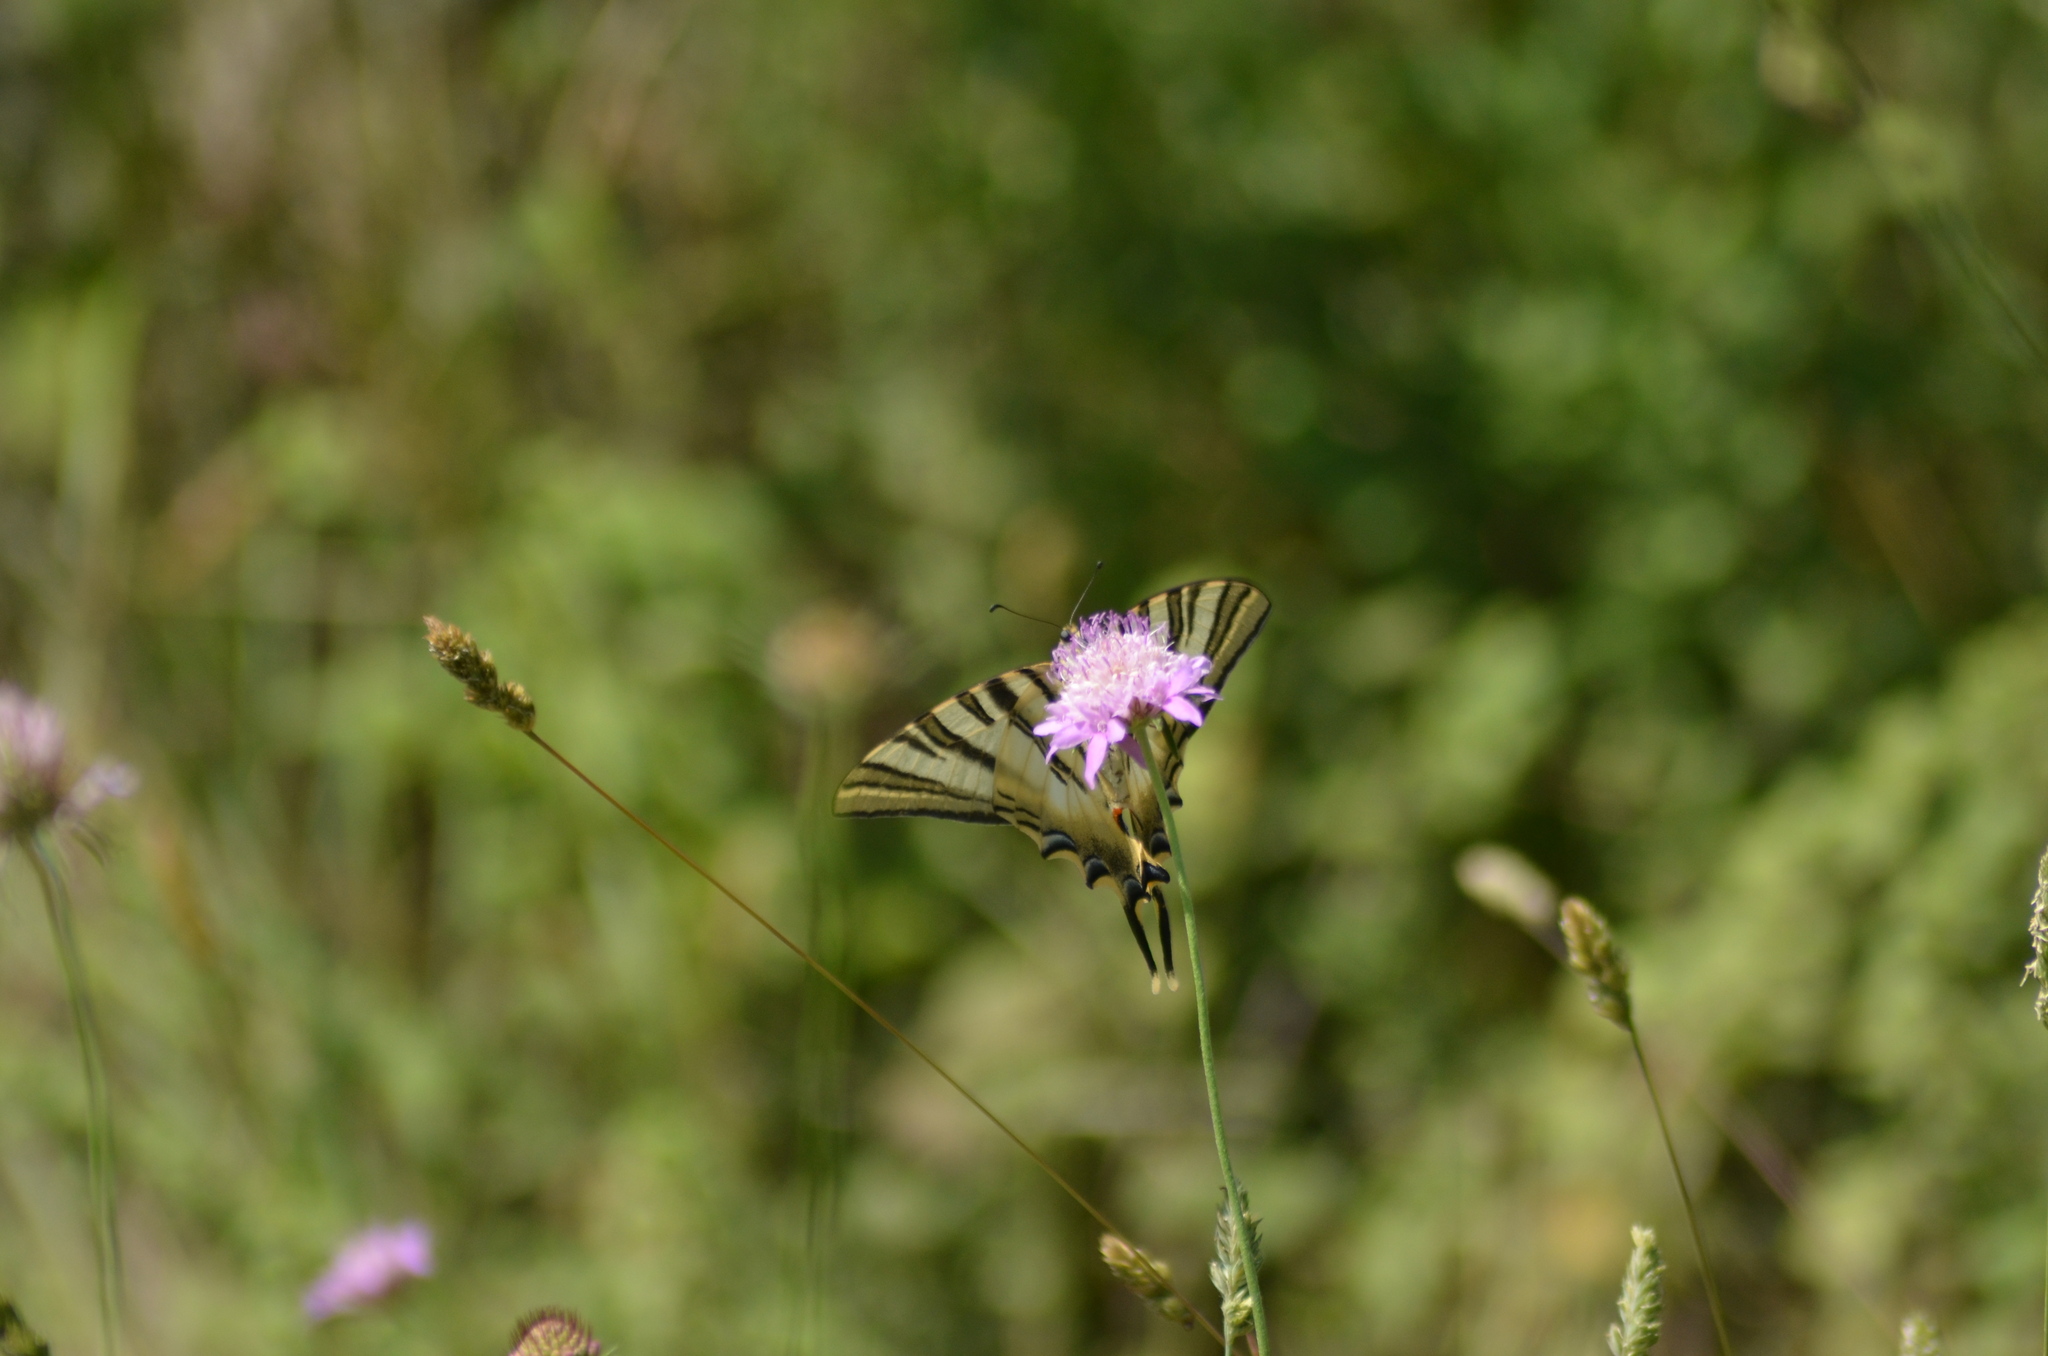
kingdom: Animalia
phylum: Arthropoda
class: Insecta
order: Lepidoptera
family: Papilionidae
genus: Iphiclides
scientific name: Iphiclides feisthamelii
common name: Iberian scarce swallowtail
